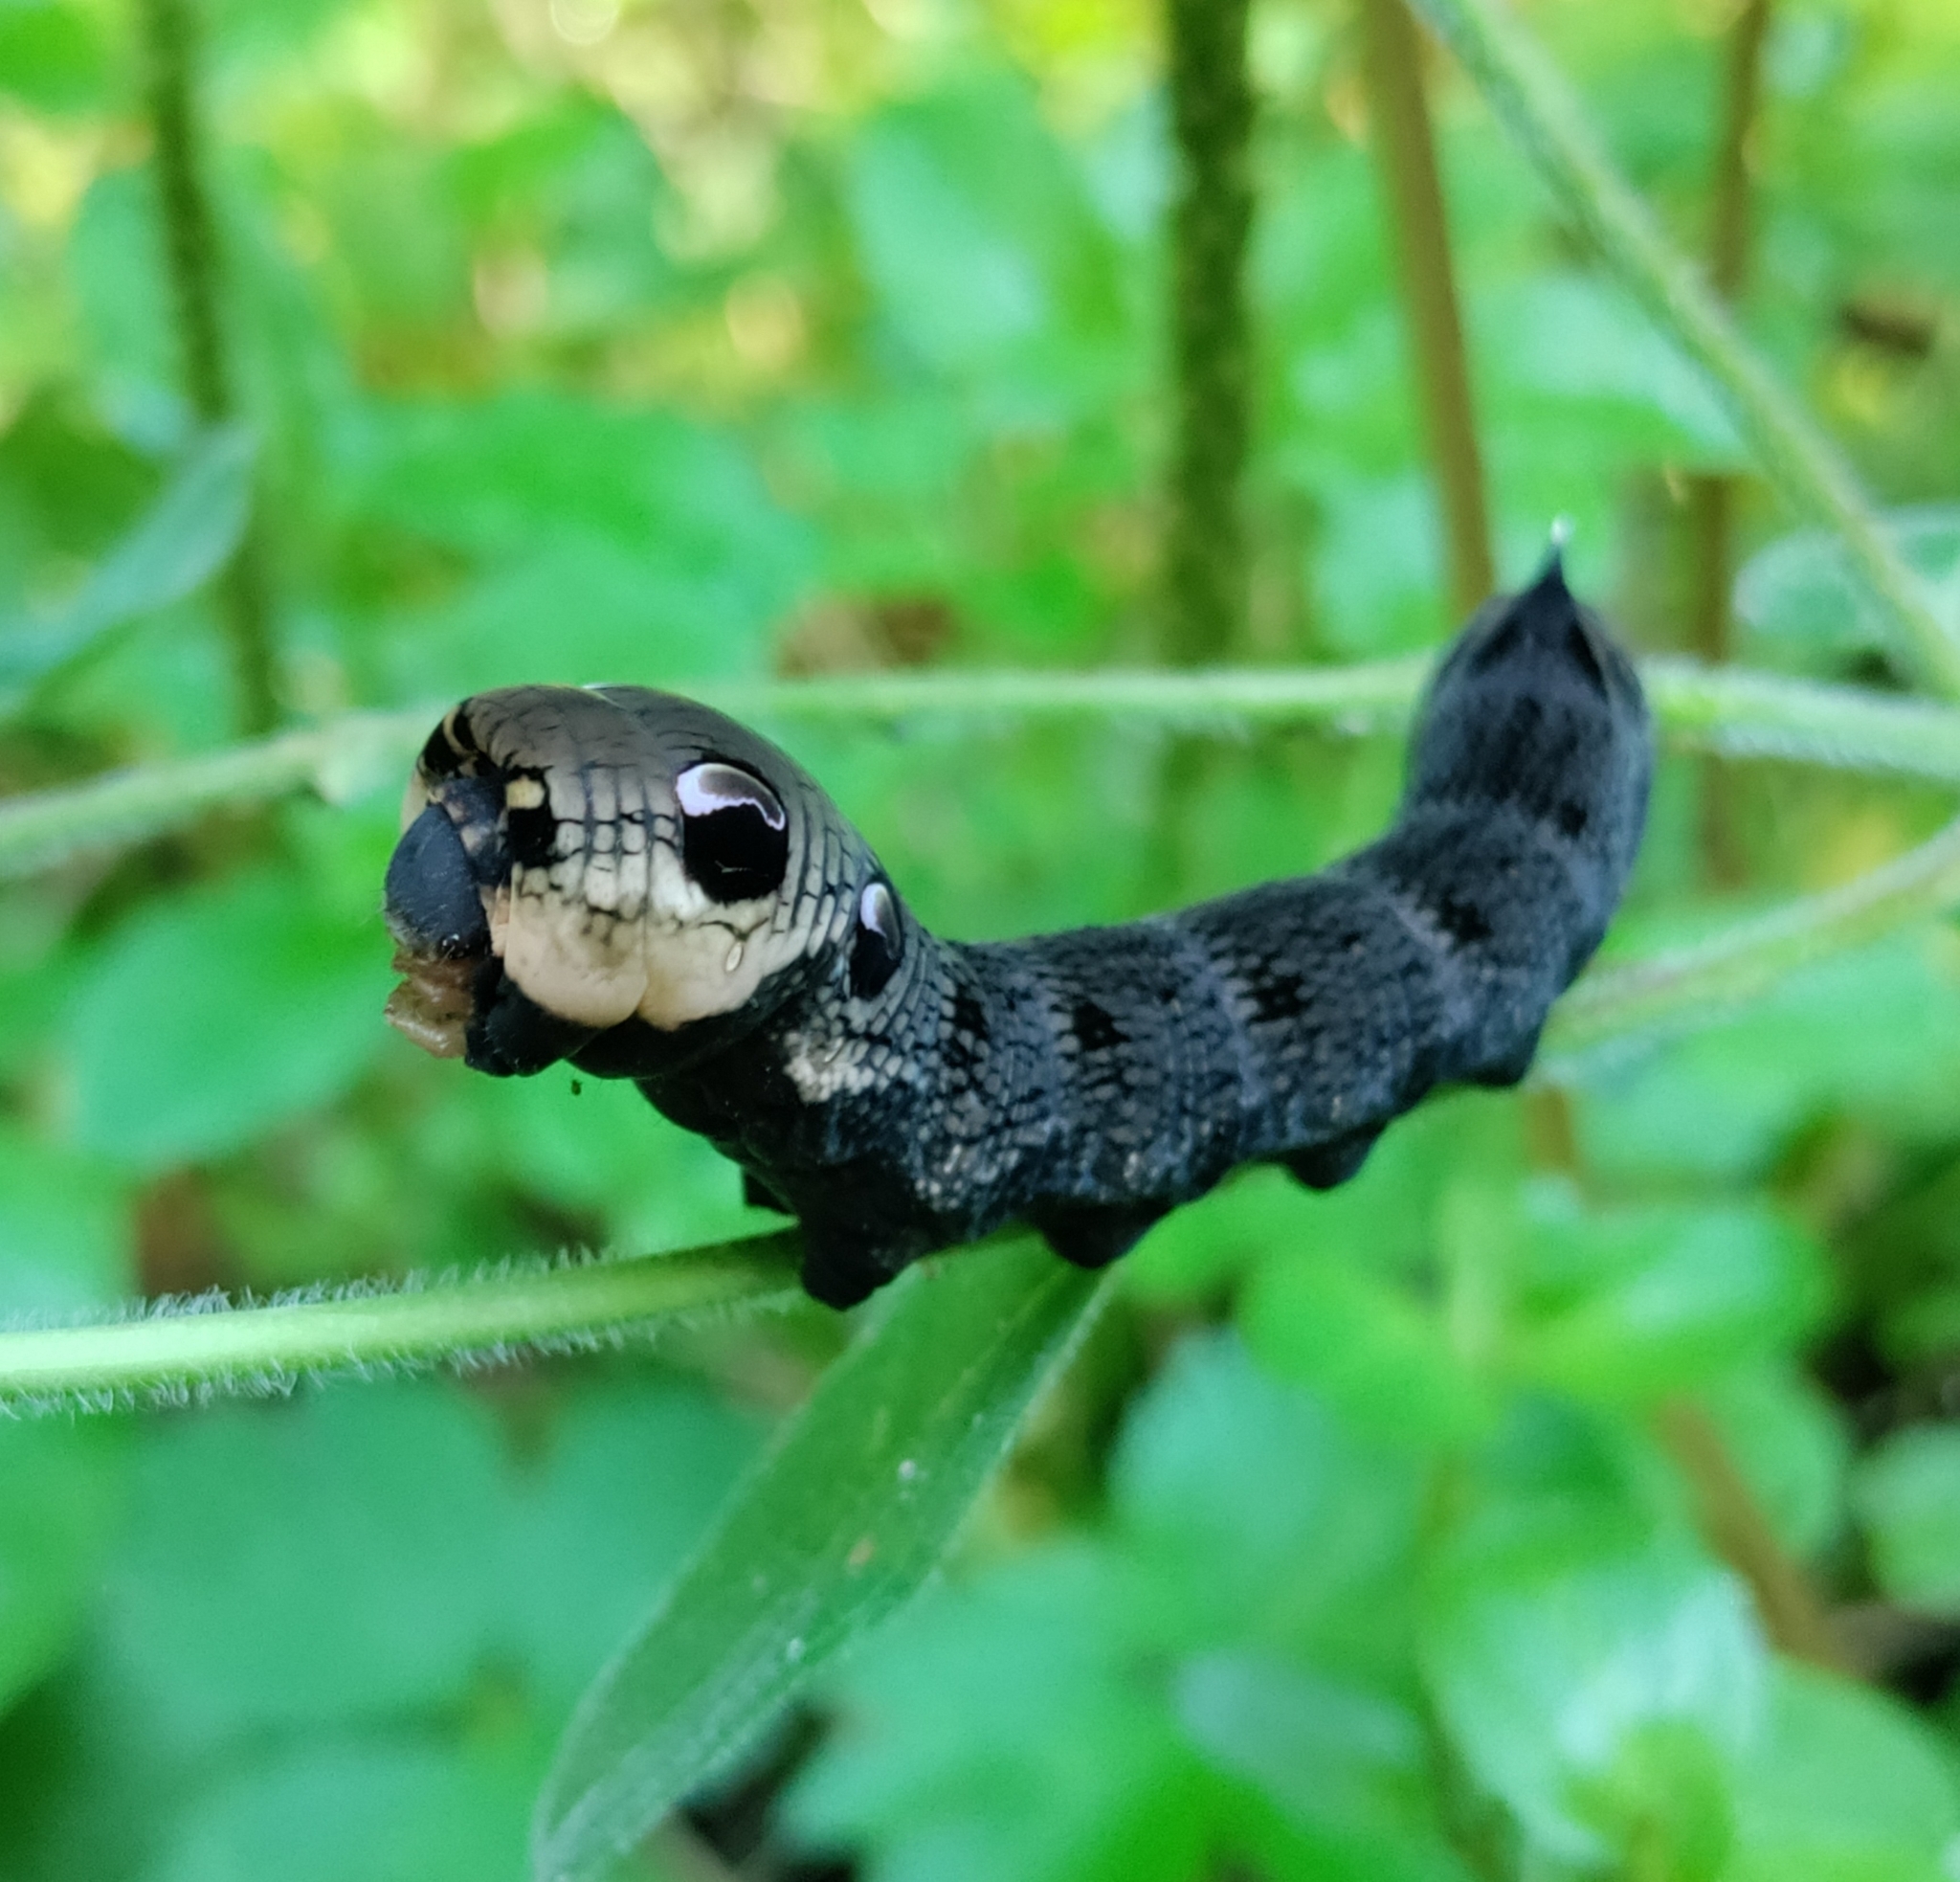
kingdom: Animalia
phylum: Arthropoda
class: Insecta
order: Lepidoptera
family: Sphingidae
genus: Deilephila
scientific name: Deilephila elpenor
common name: Elephant hawk-moth
